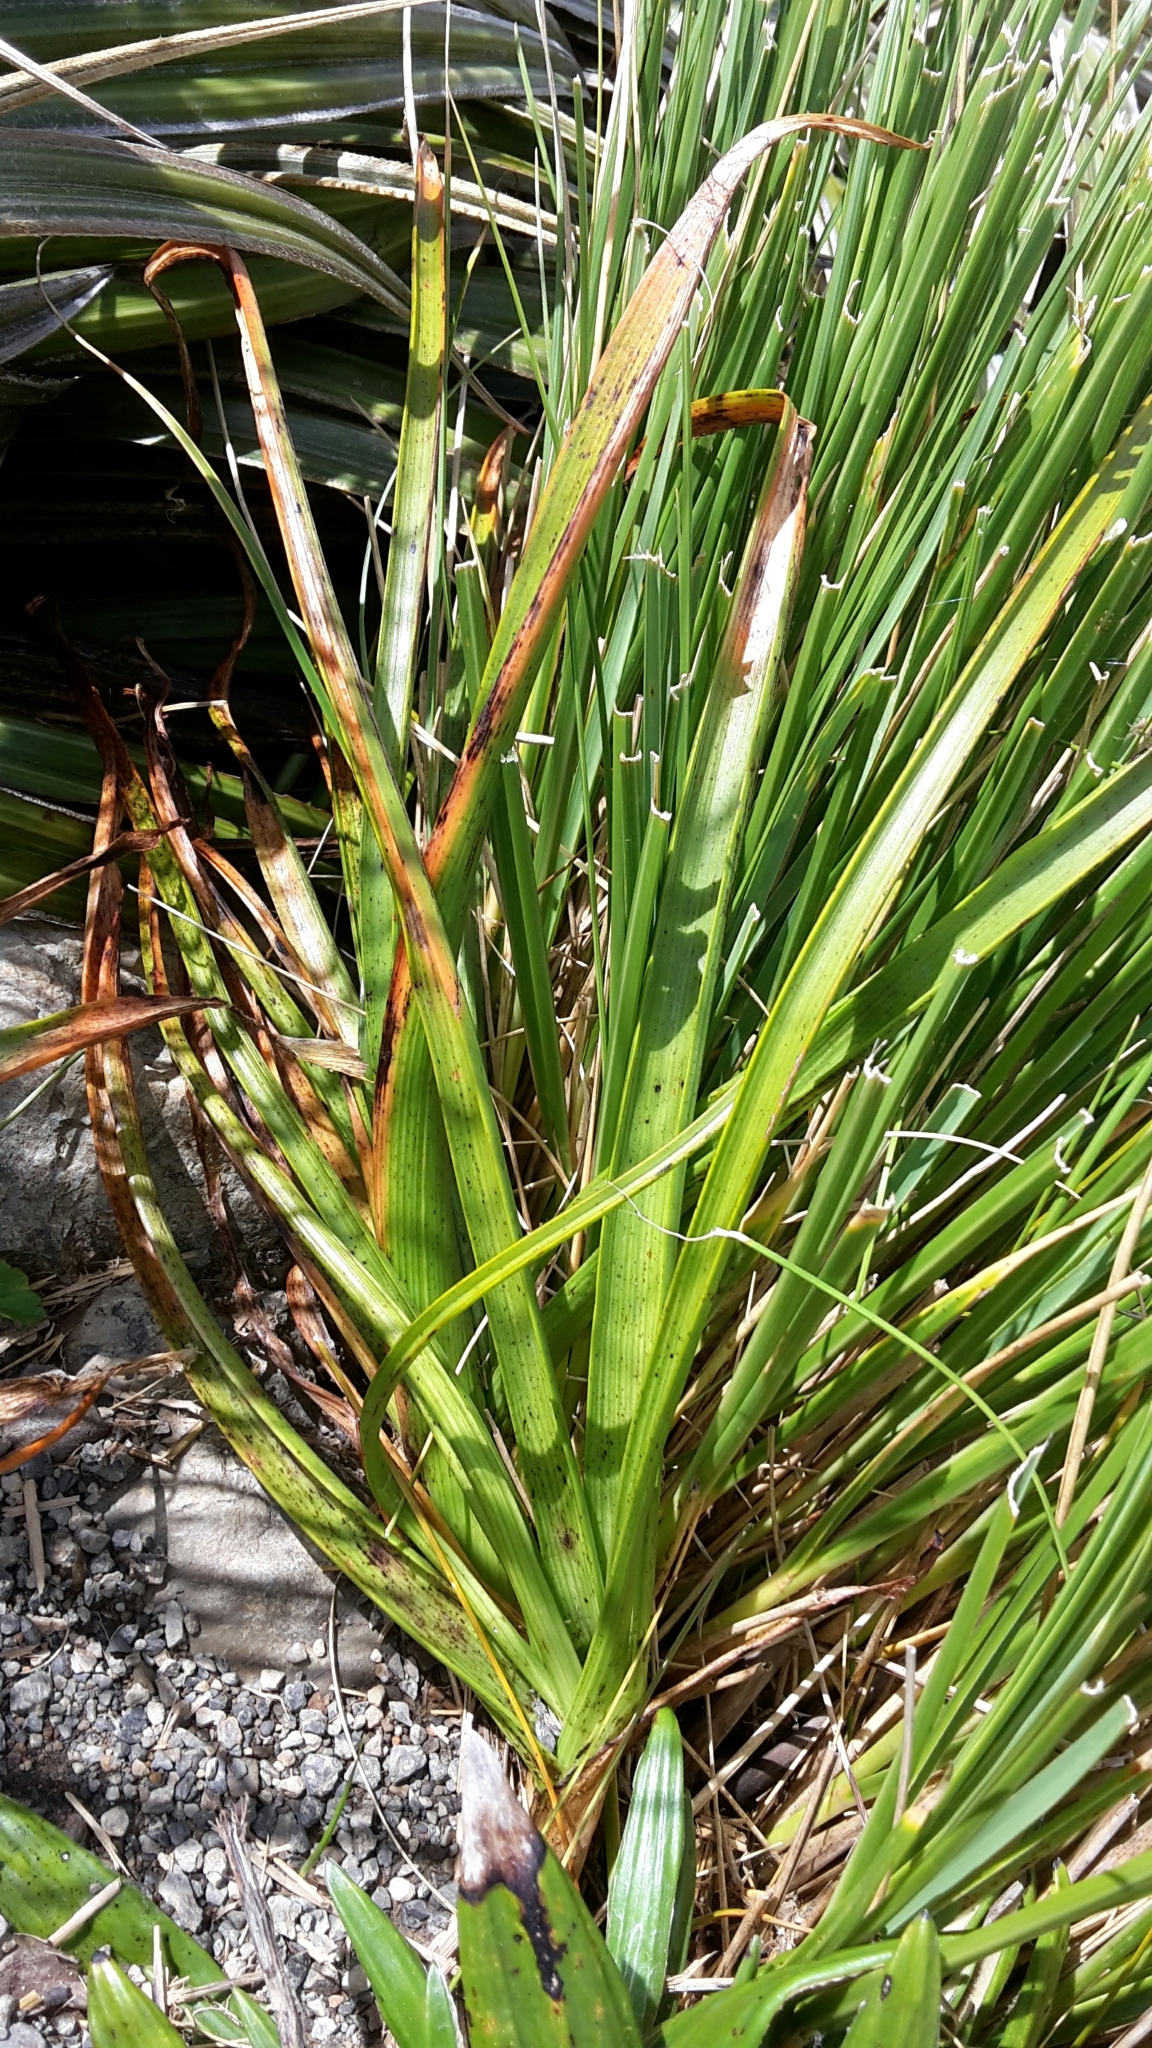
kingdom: Plantae
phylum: Tracheophyta
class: Liliopsida
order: Asparagales
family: Asphodelaceae
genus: Bulbinella
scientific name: Bulbinella hookeri
